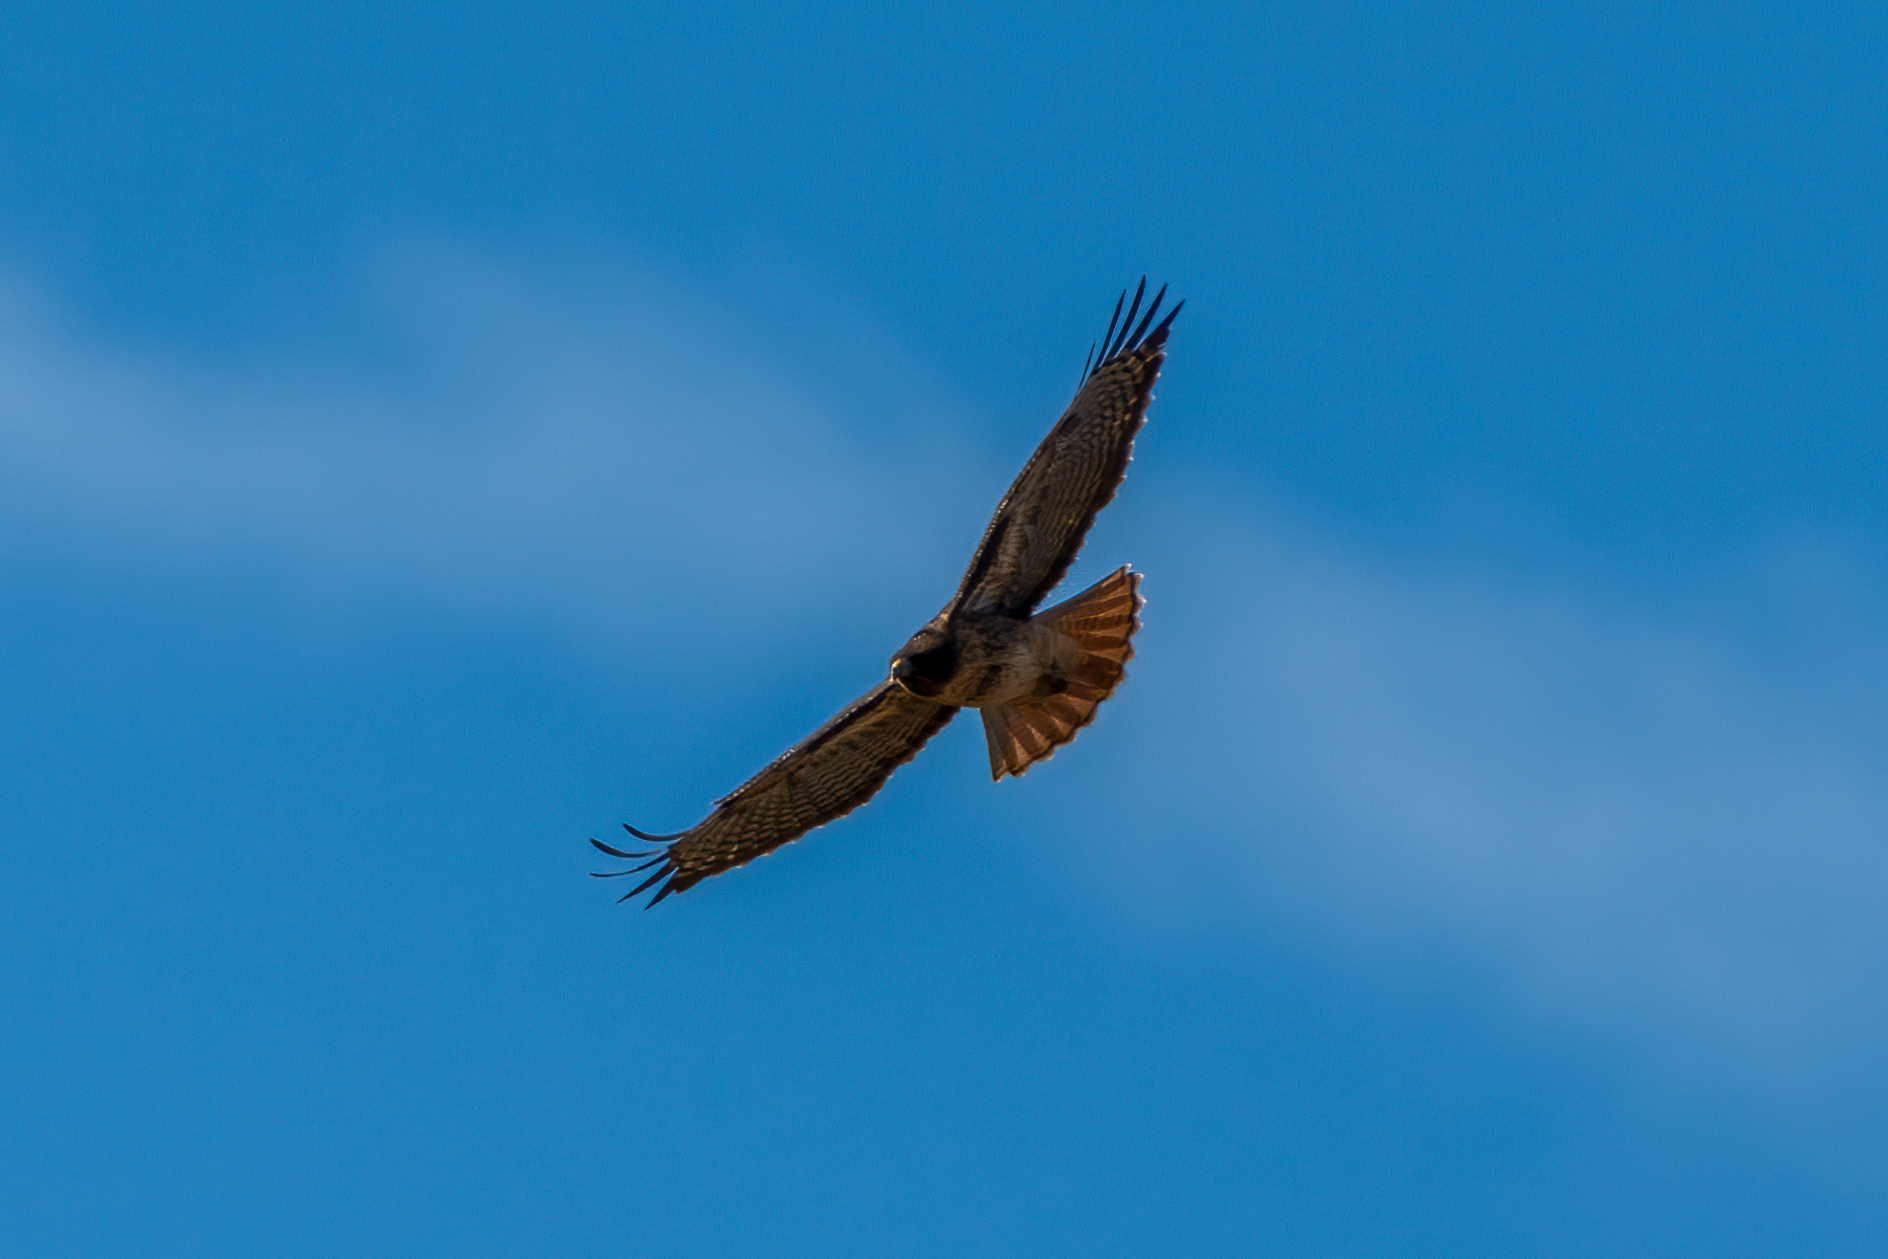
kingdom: Animalia
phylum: Chordata
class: Aves
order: Accipitriformes
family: Accipitridae
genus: Buteo
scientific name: Buteo jamaicensis
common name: Red-tailed hawk
